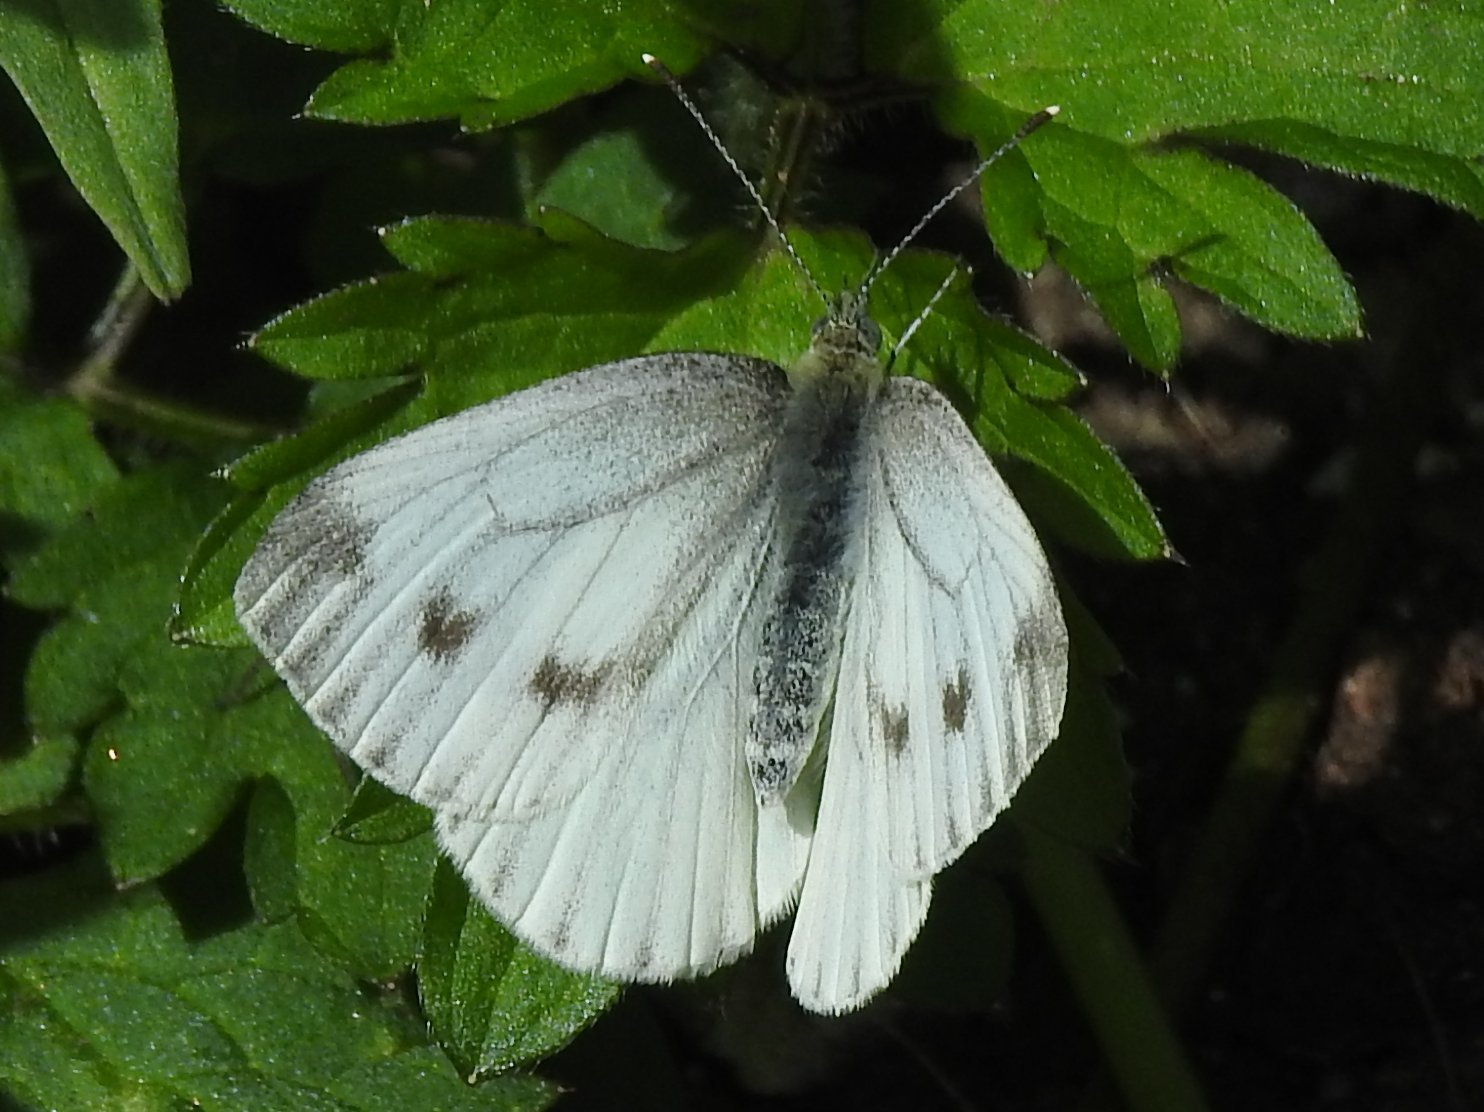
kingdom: Animalia
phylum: Arthropoda
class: Insecta
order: Lepidoptera
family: Pieridae
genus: Pieris
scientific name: Pieris napi
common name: Green-veined white
